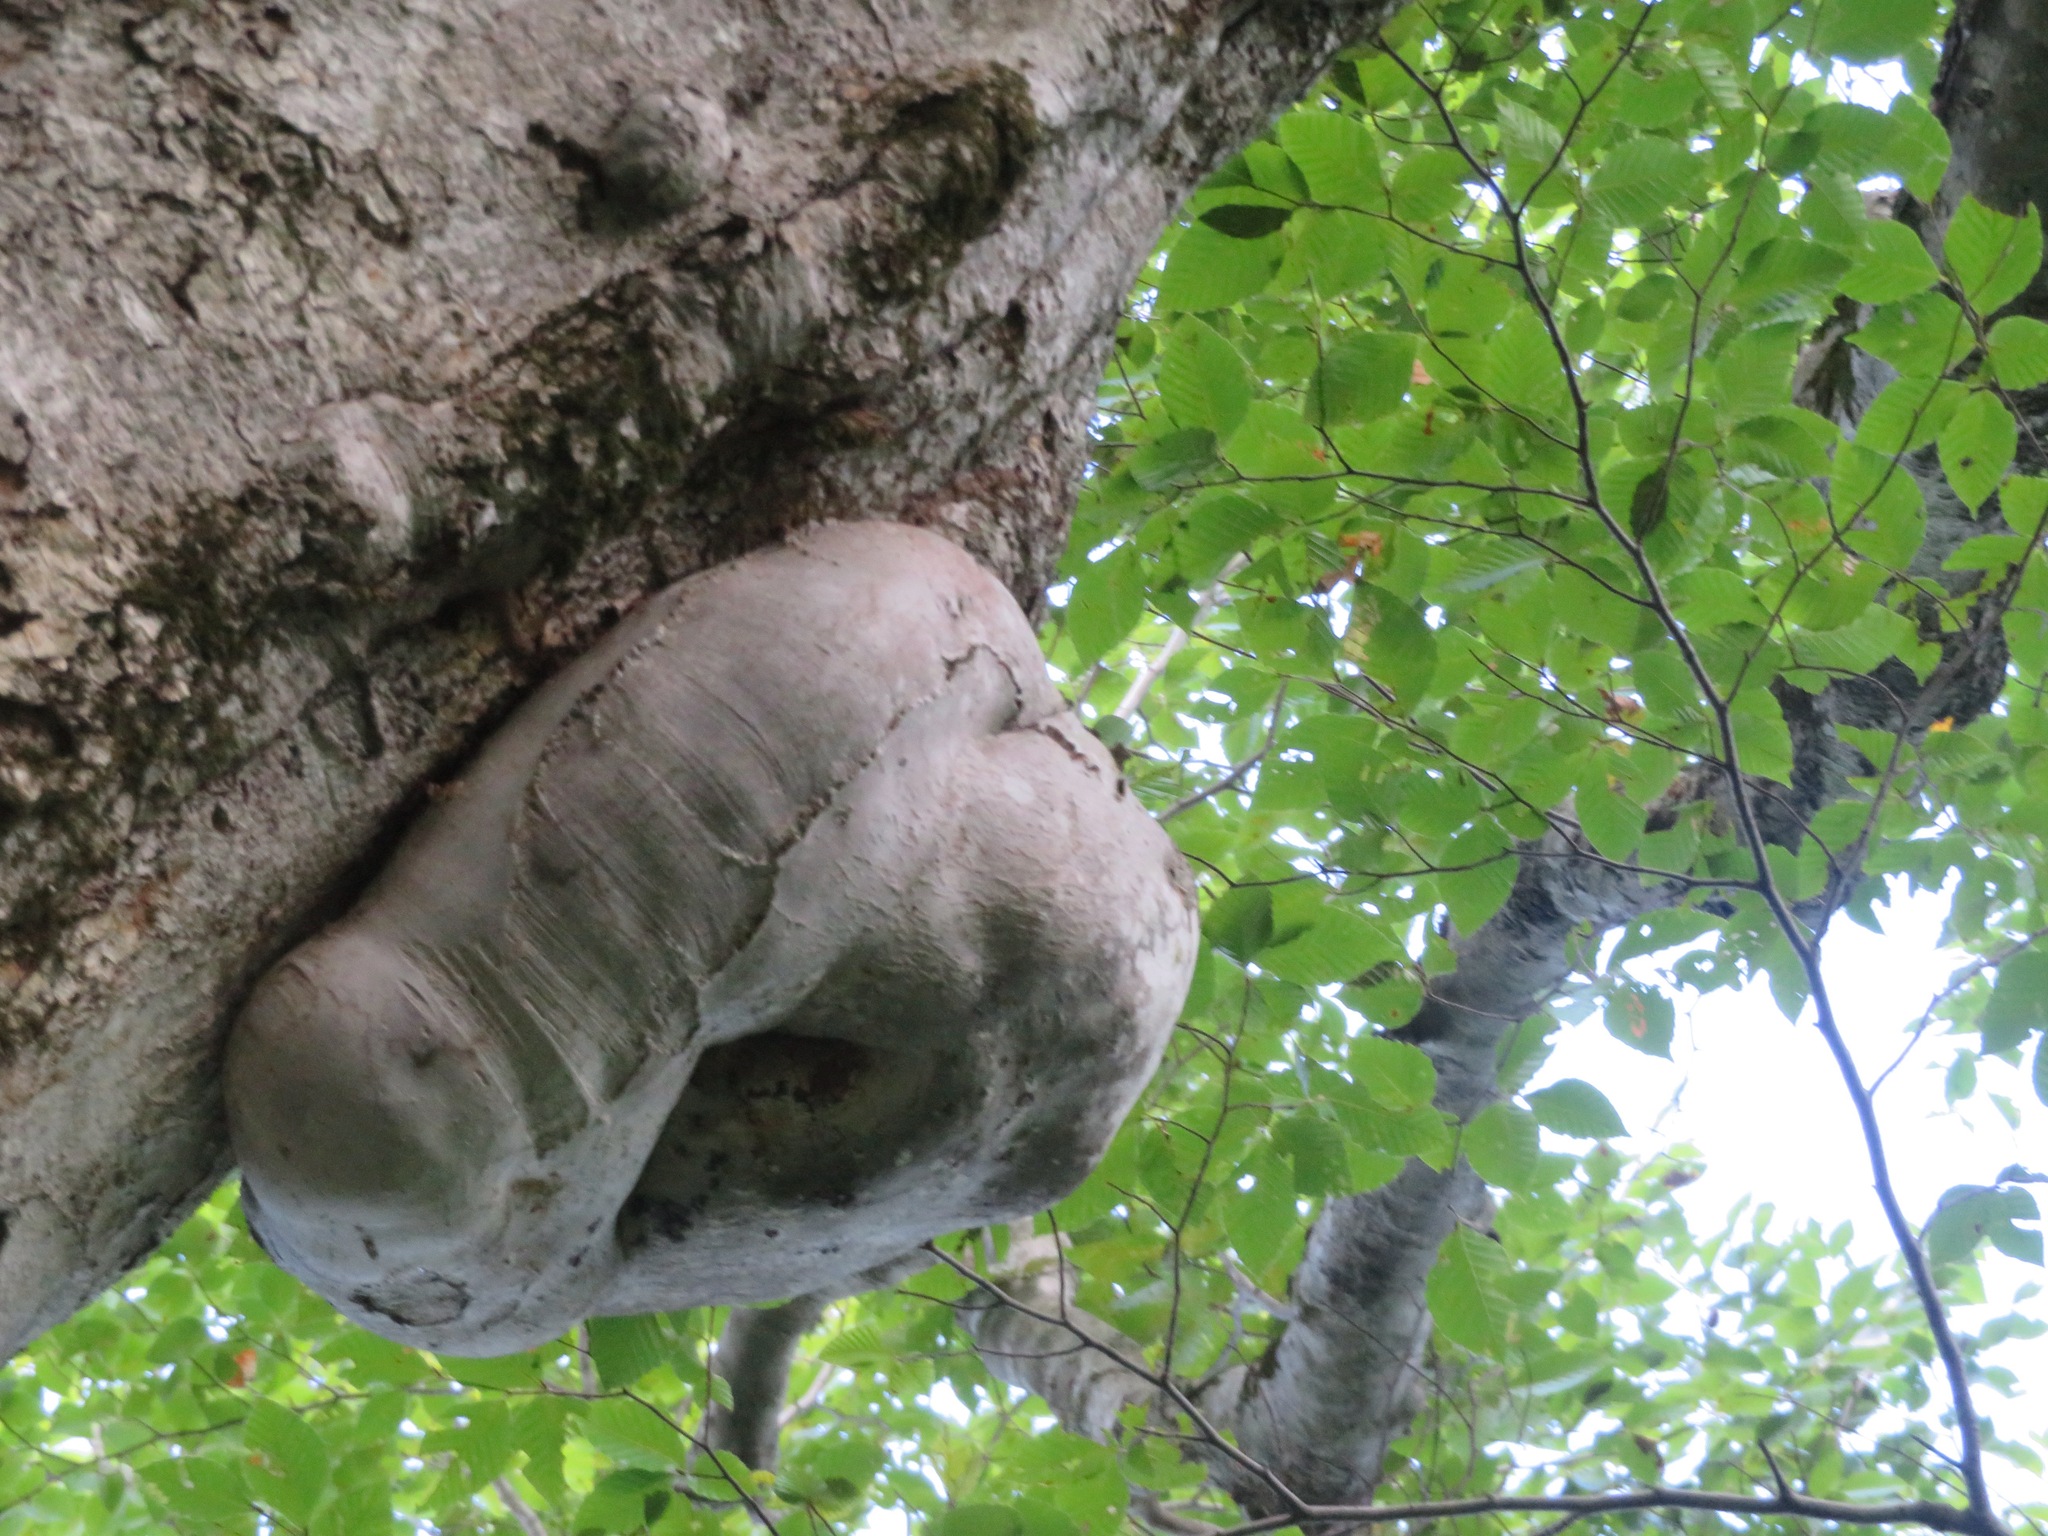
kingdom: Plantae
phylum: Tracheophyta
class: Magnoliopsida
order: Fagales
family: Fagaceae
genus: Fagus
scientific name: Fagus crenata
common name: Japanese beech
